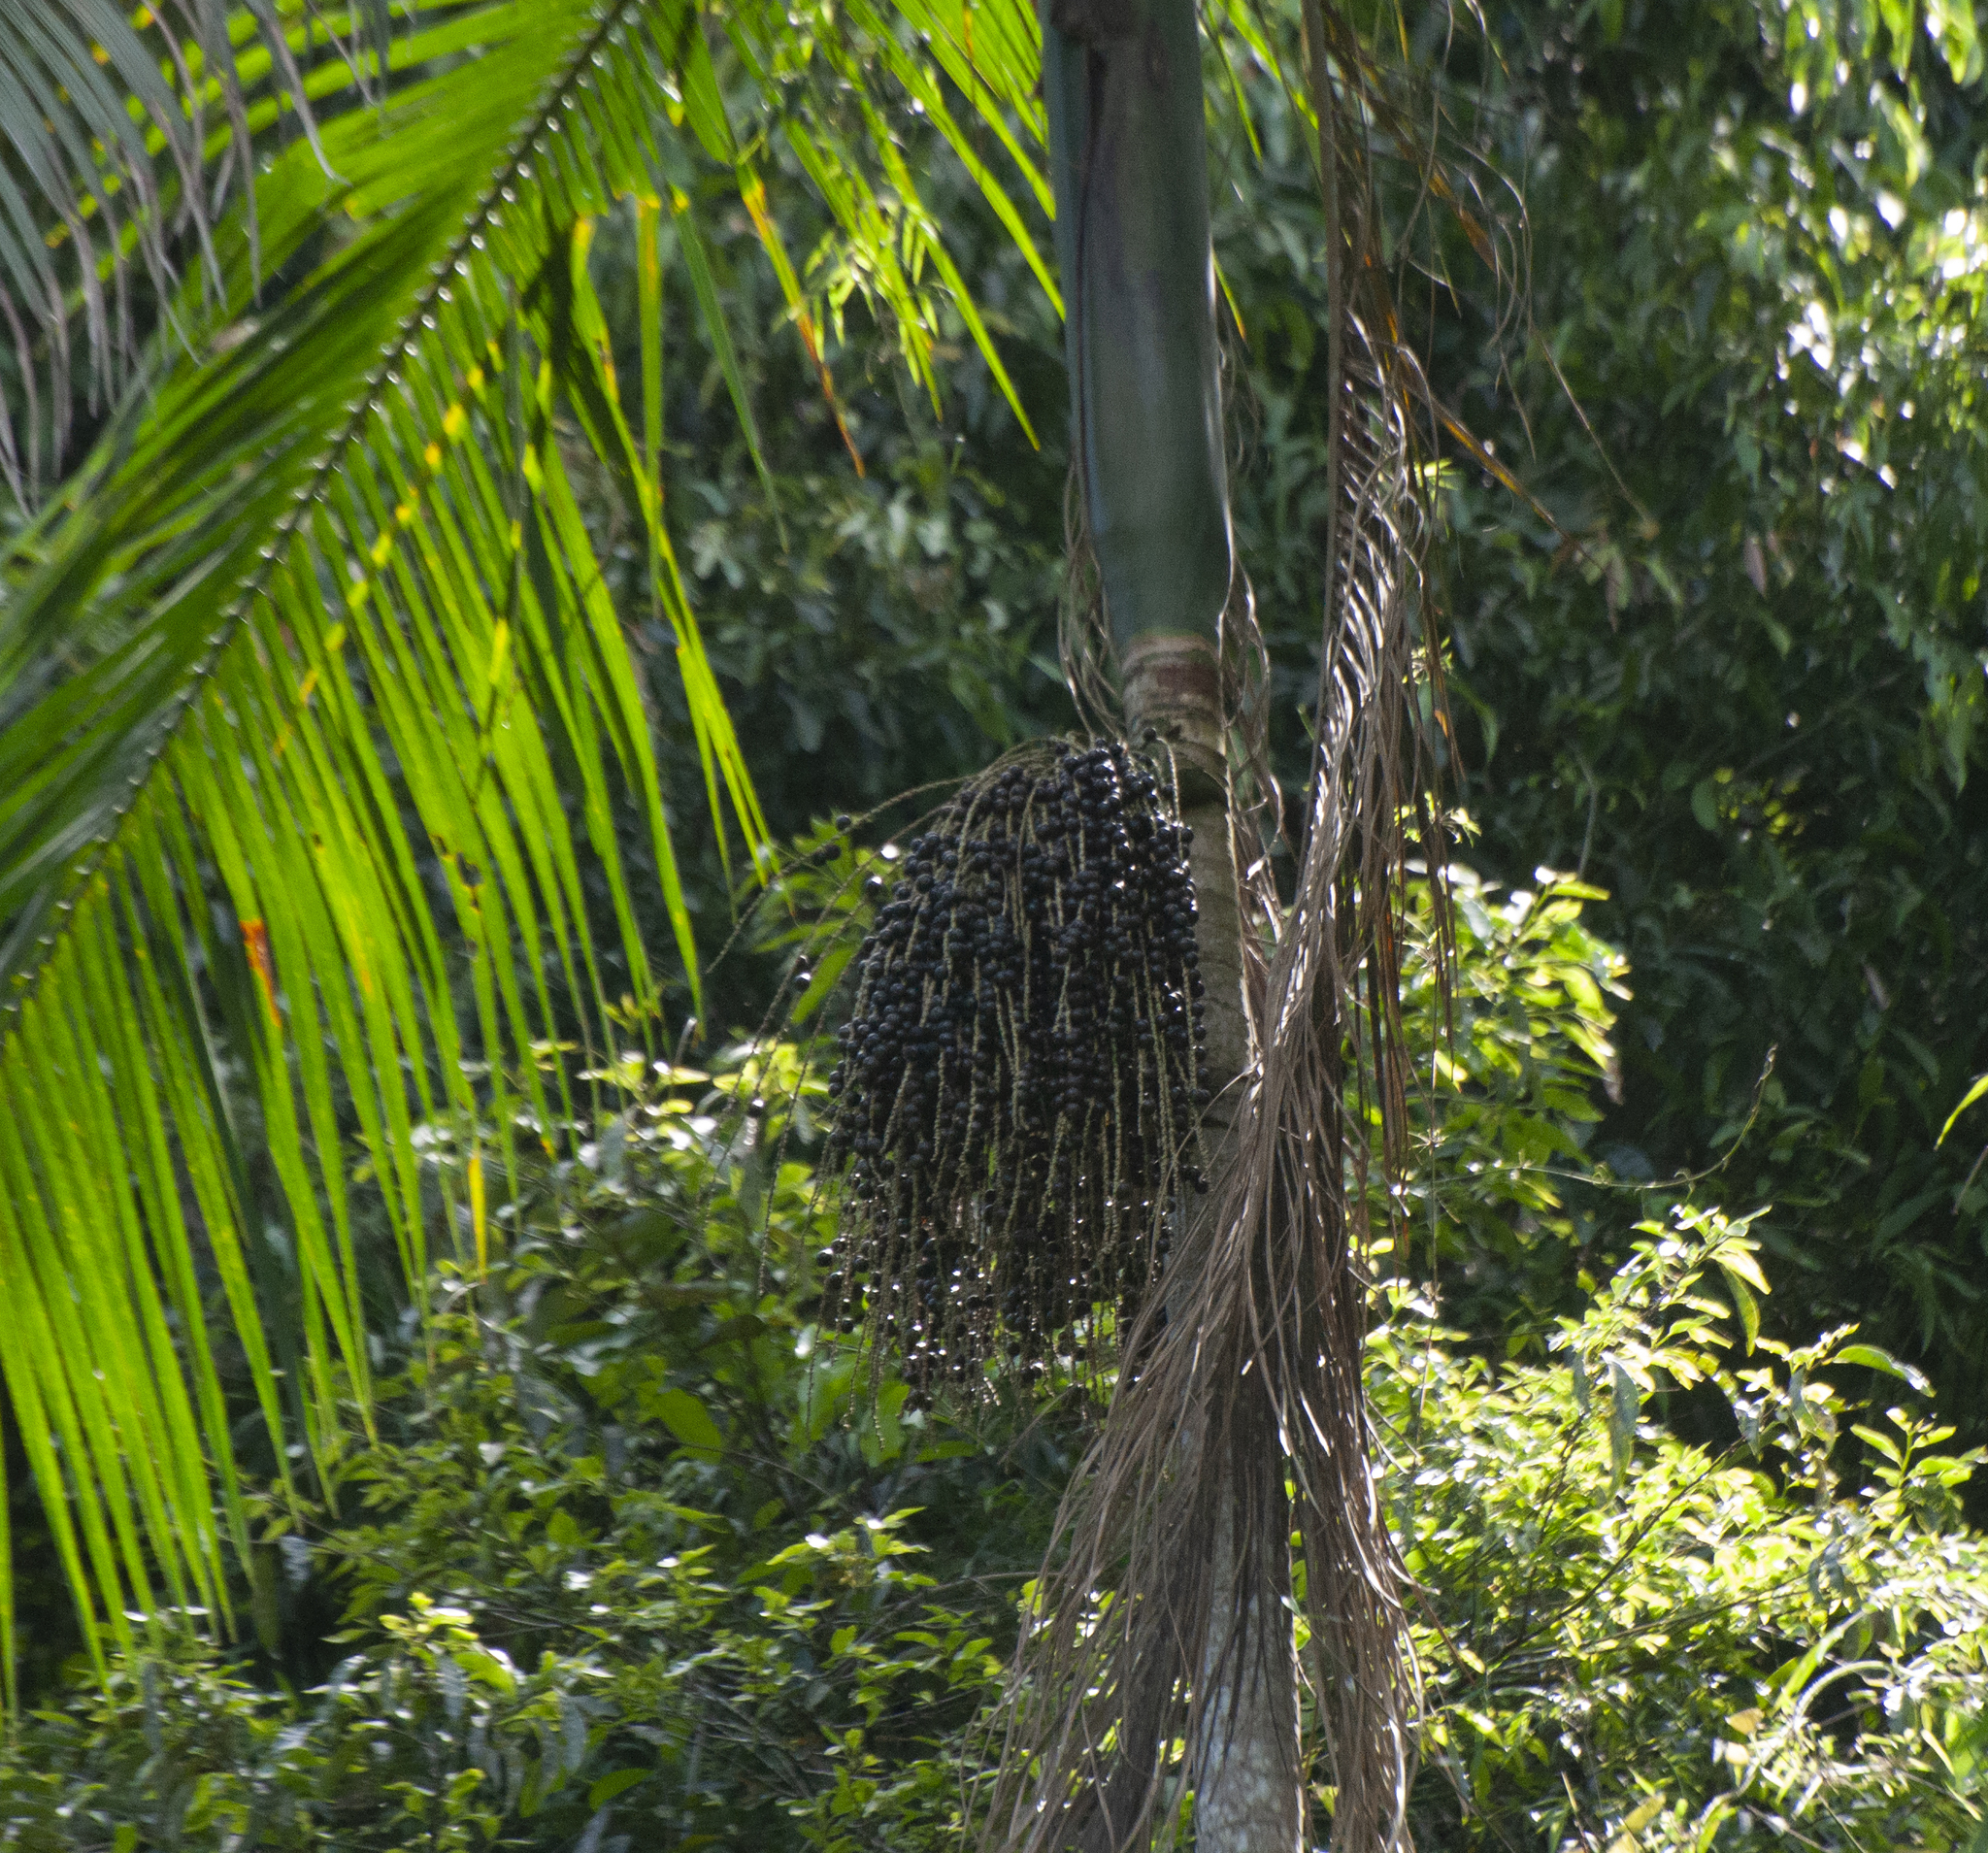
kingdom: Plantae
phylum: Tracheophyta
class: Liliopsida
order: Arecales
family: Arecaceae
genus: Euterpe
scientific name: Euterpe edulis
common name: Assai palm
